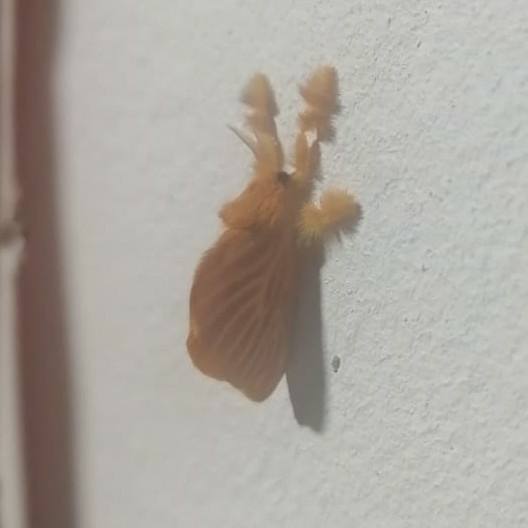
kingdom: Animalia
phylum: Arthropoda
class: Insecta
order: Lepidoptera
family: Dalceridae
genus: Acraga
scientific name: Acraga coa
